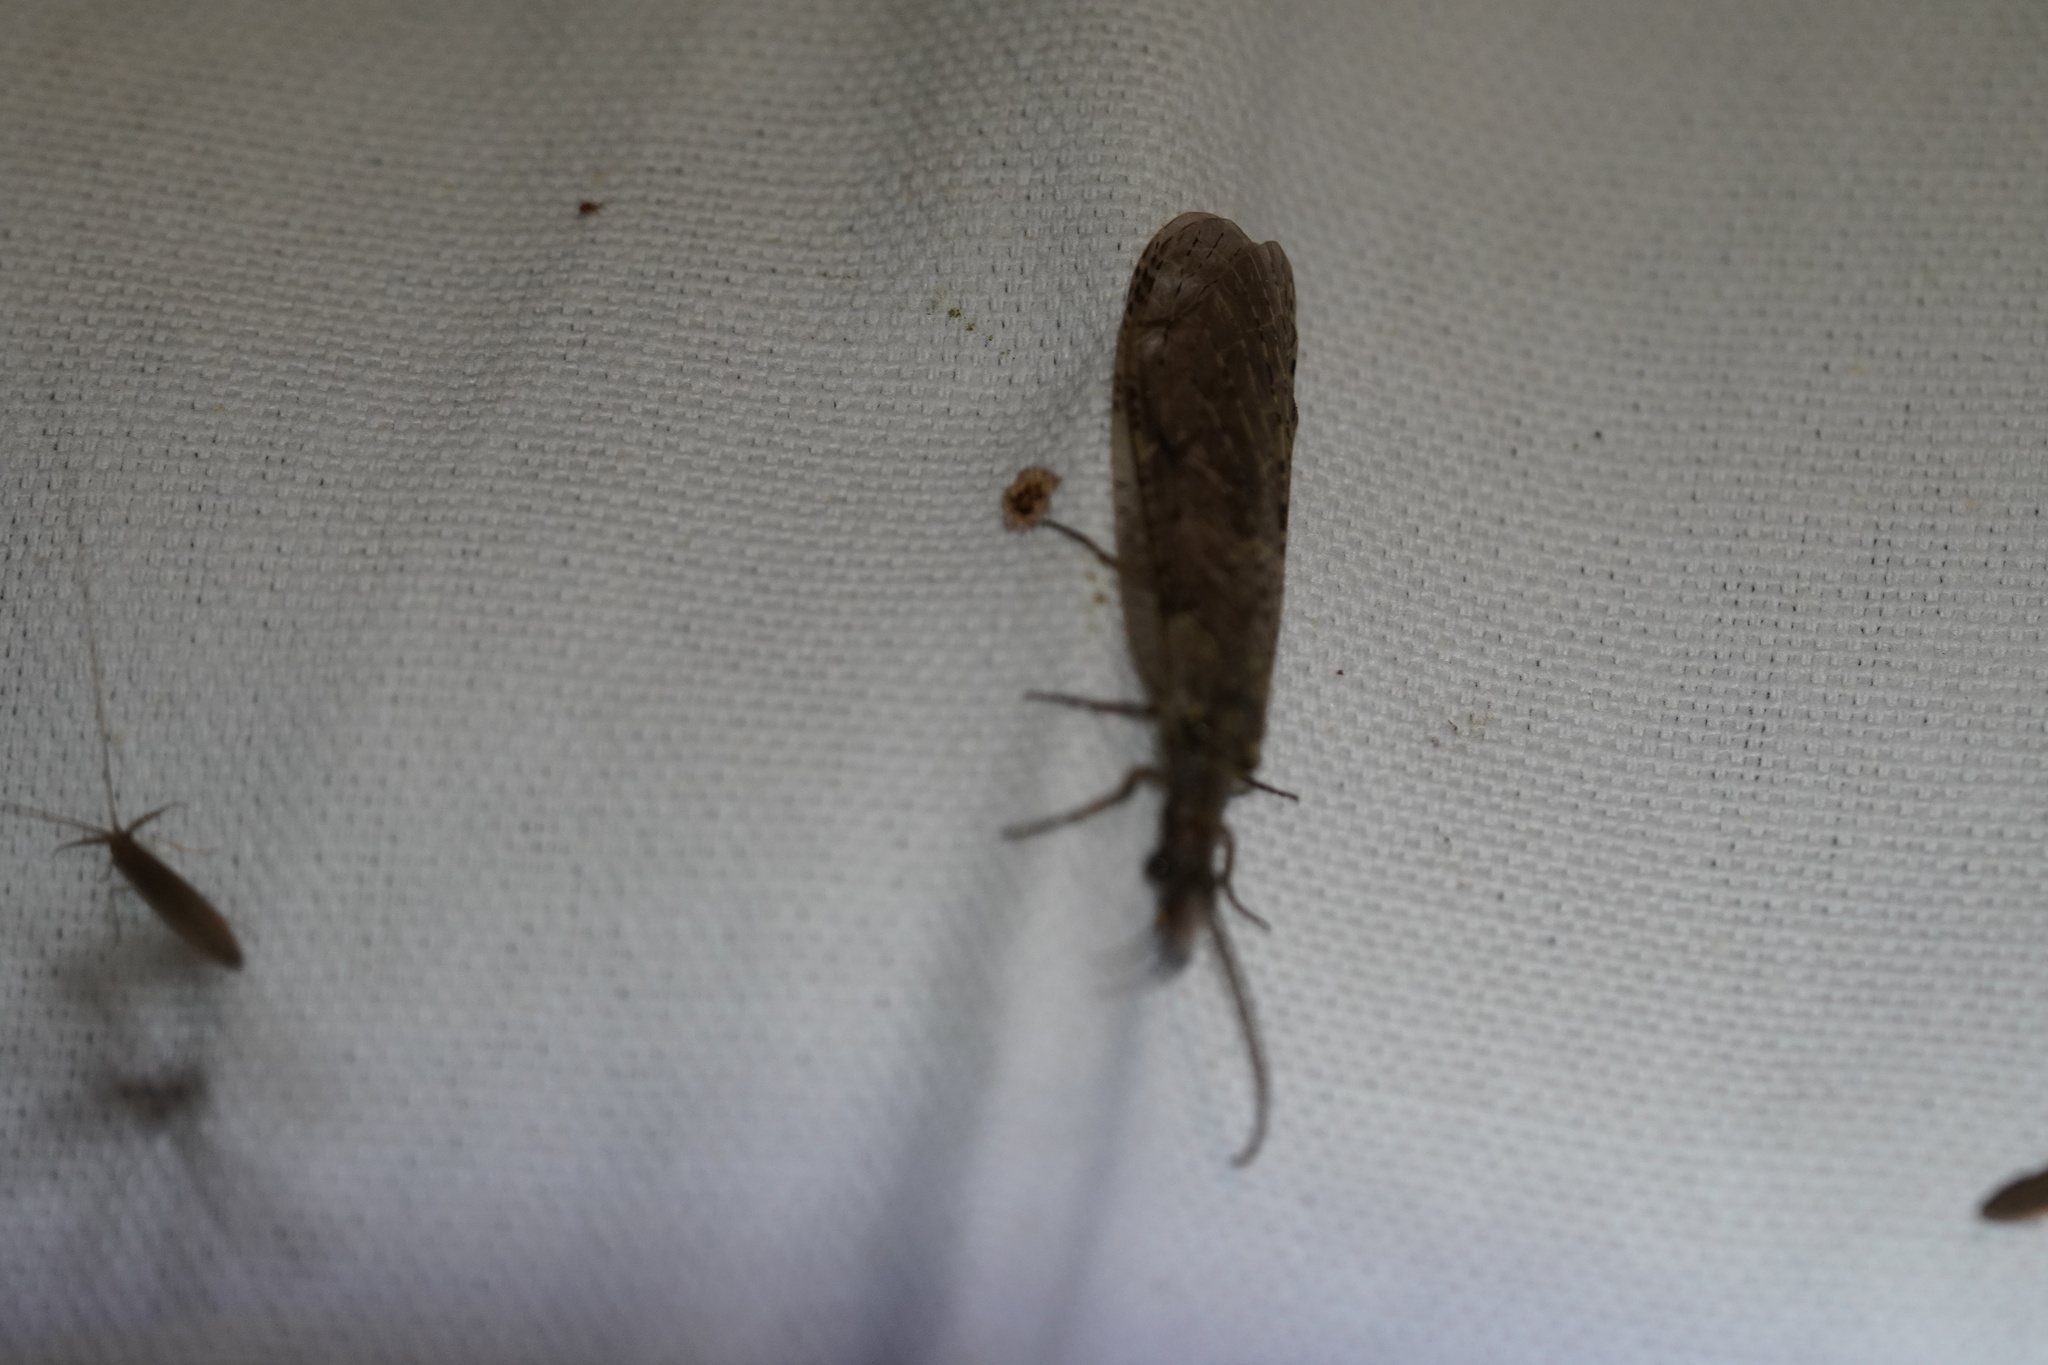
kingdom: Animalia
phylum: Arthropoda
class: Insecta
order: Megaloptera
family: Corydalidae
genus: Chauliodes
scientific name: Chauliodes rastricornis
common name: Spring fishfly
